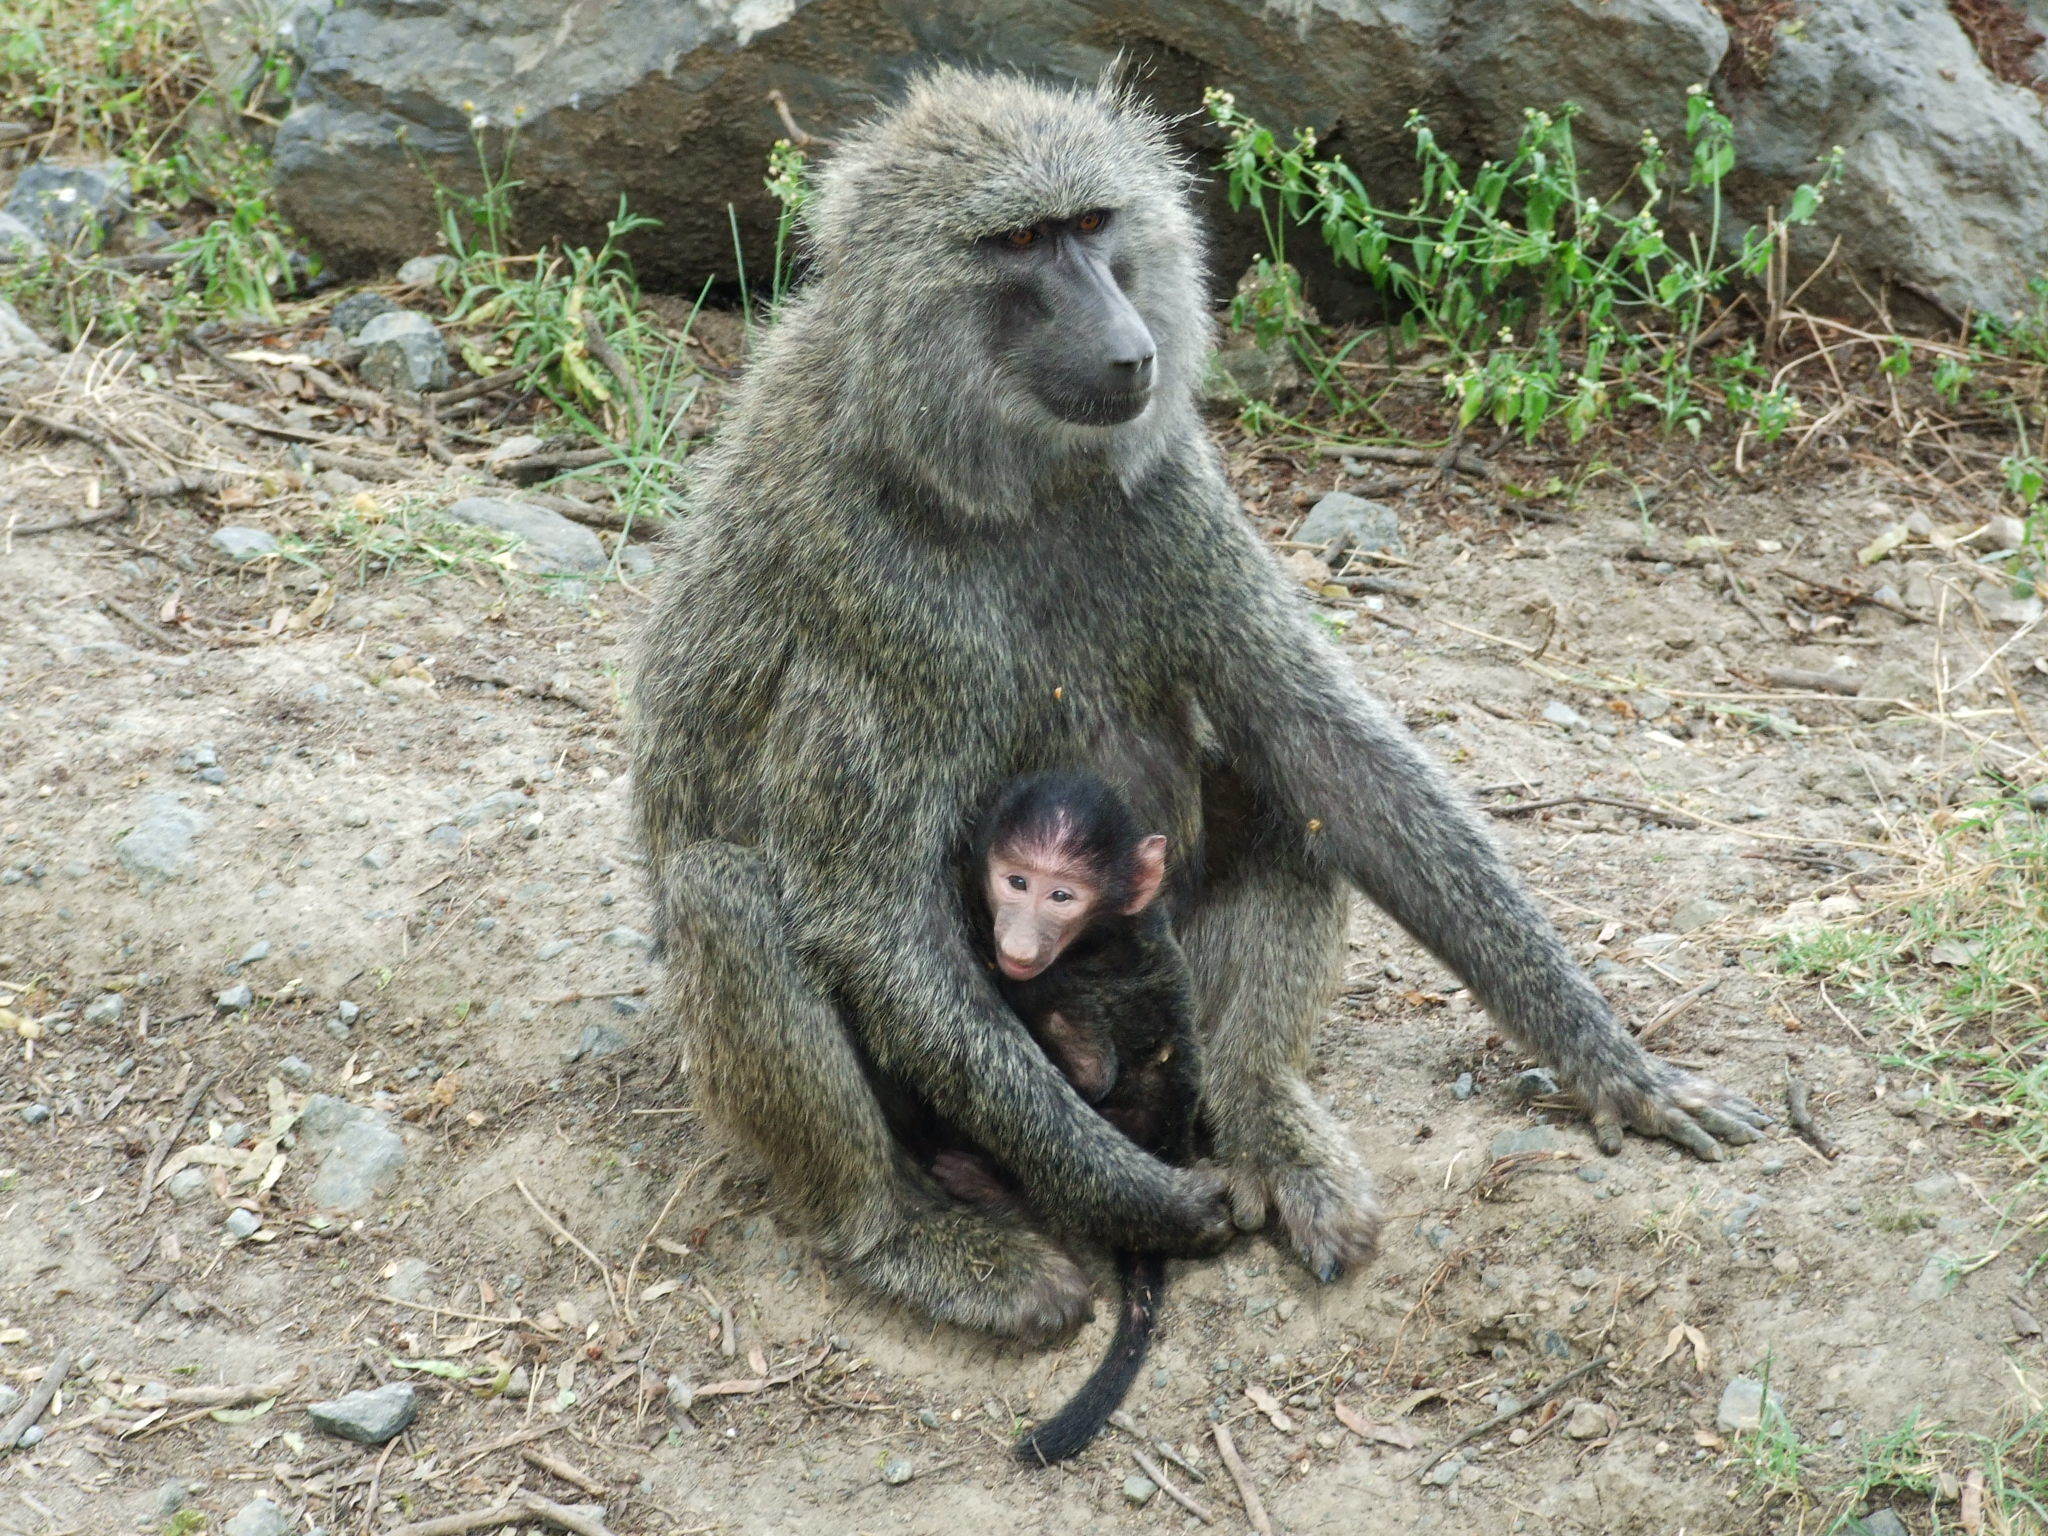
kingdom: Animalia
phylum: Chordata
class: Mammalia
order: Primates
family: Cercopithecidae
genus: Papio
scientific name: Papio anubis
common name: Olive baboon
